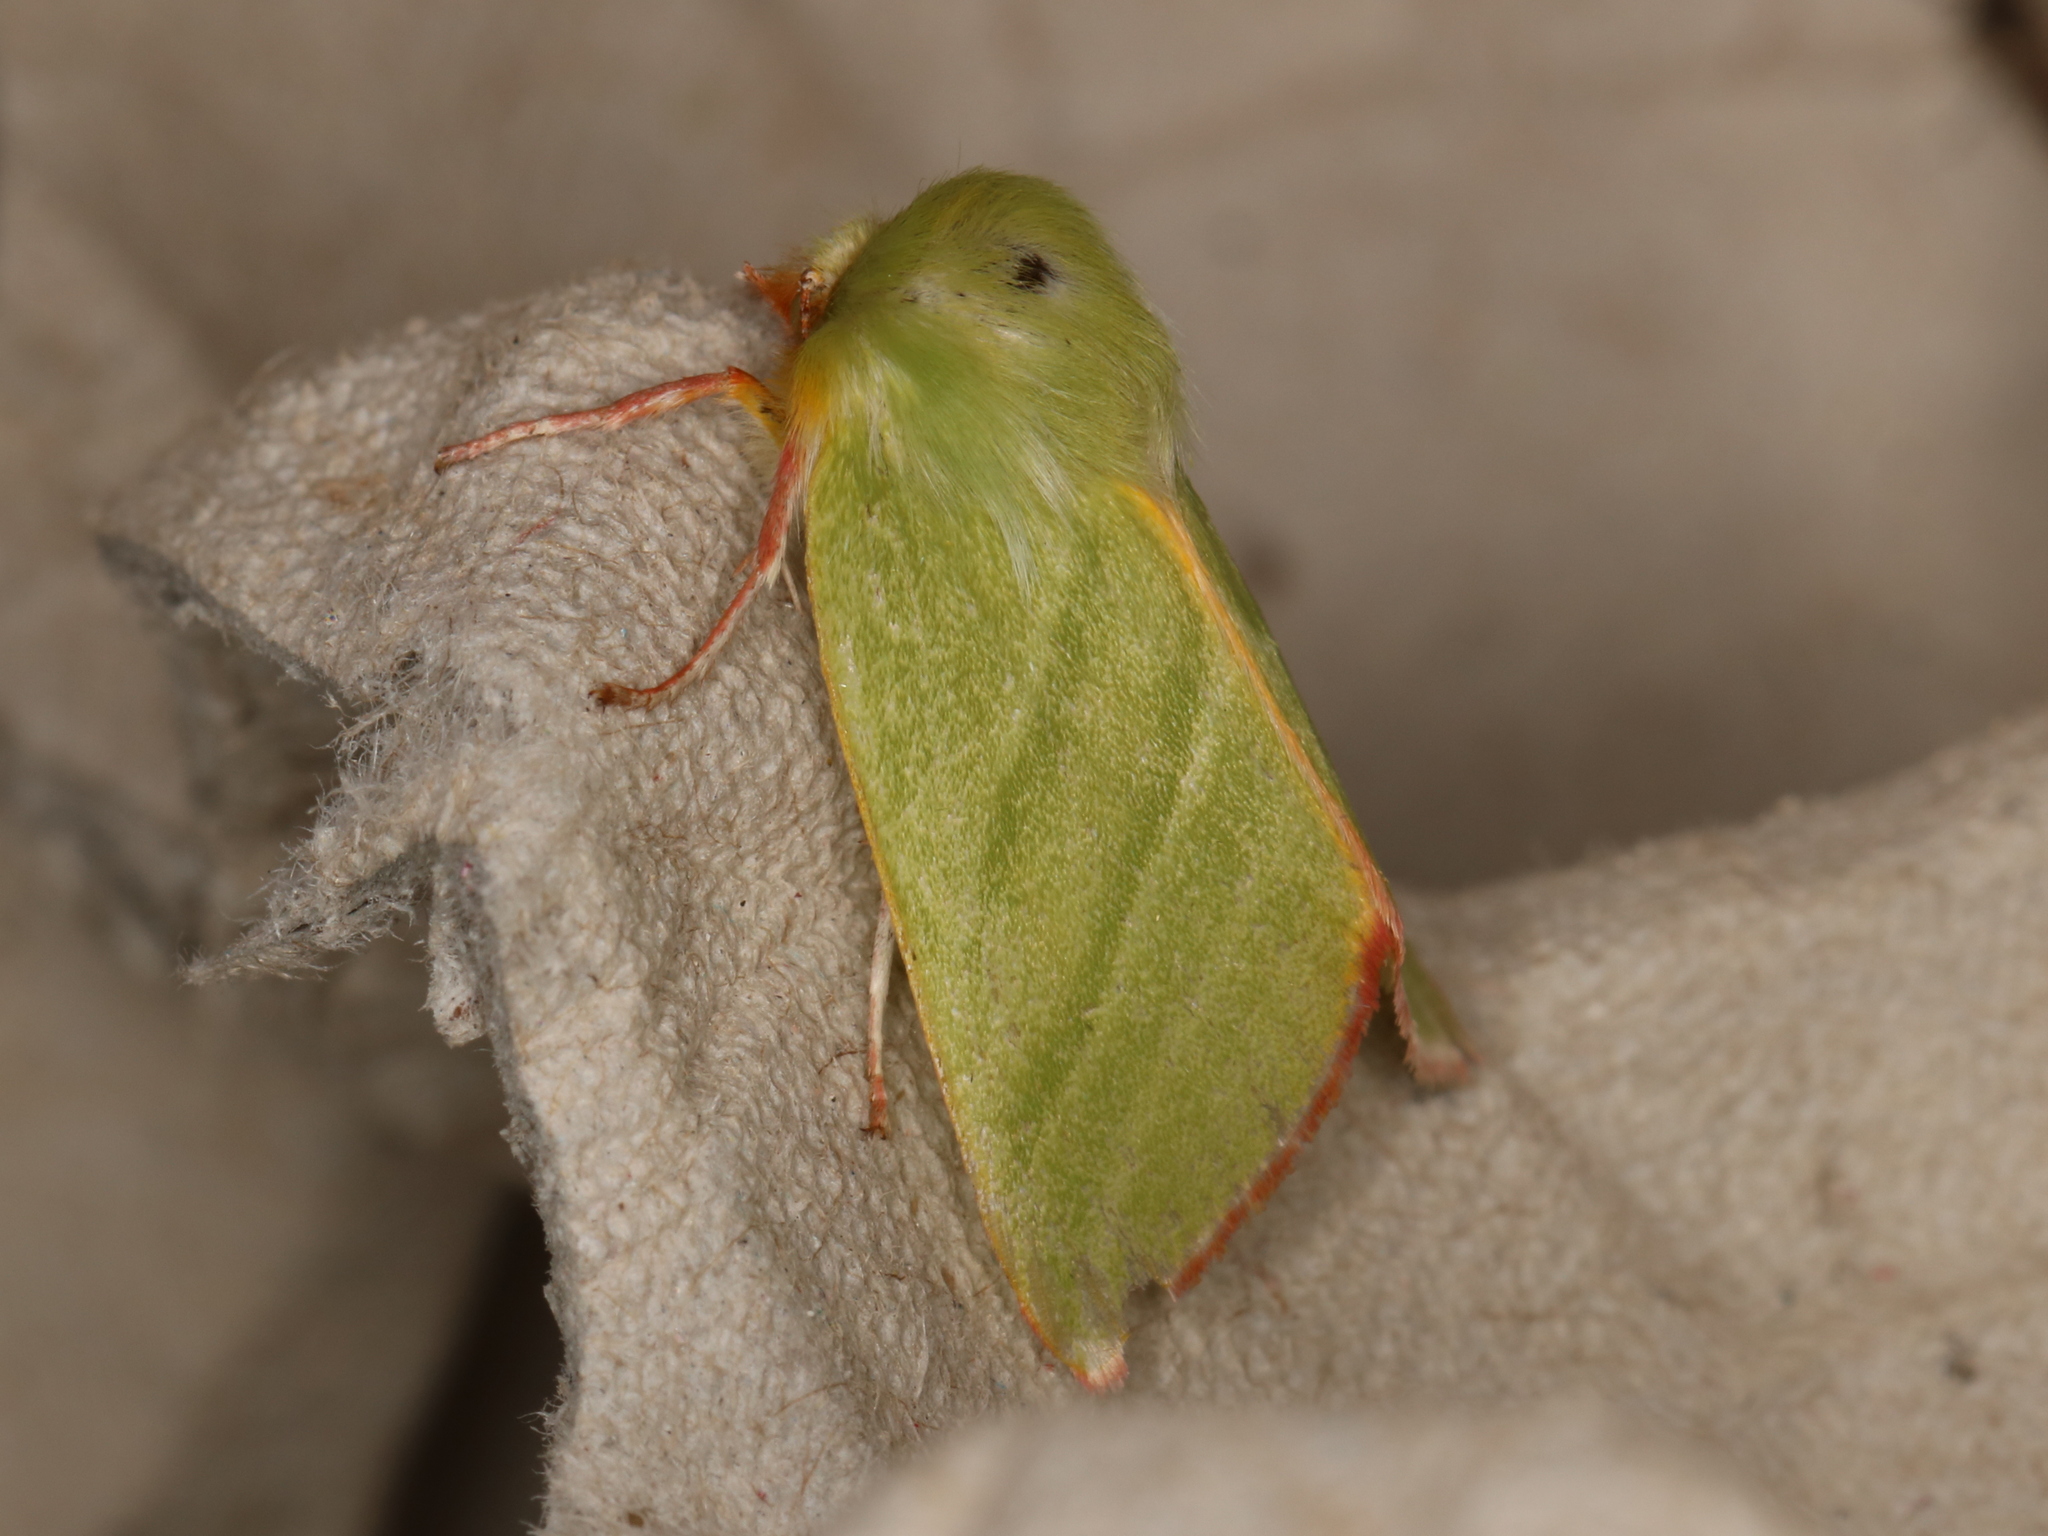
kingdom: Animalia
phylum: Arthropoda
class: Insecta
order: Lepidoptera
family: Nolidae
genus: Pseudoips
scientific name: Pseudoips prasinana
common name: Green silver-lines
